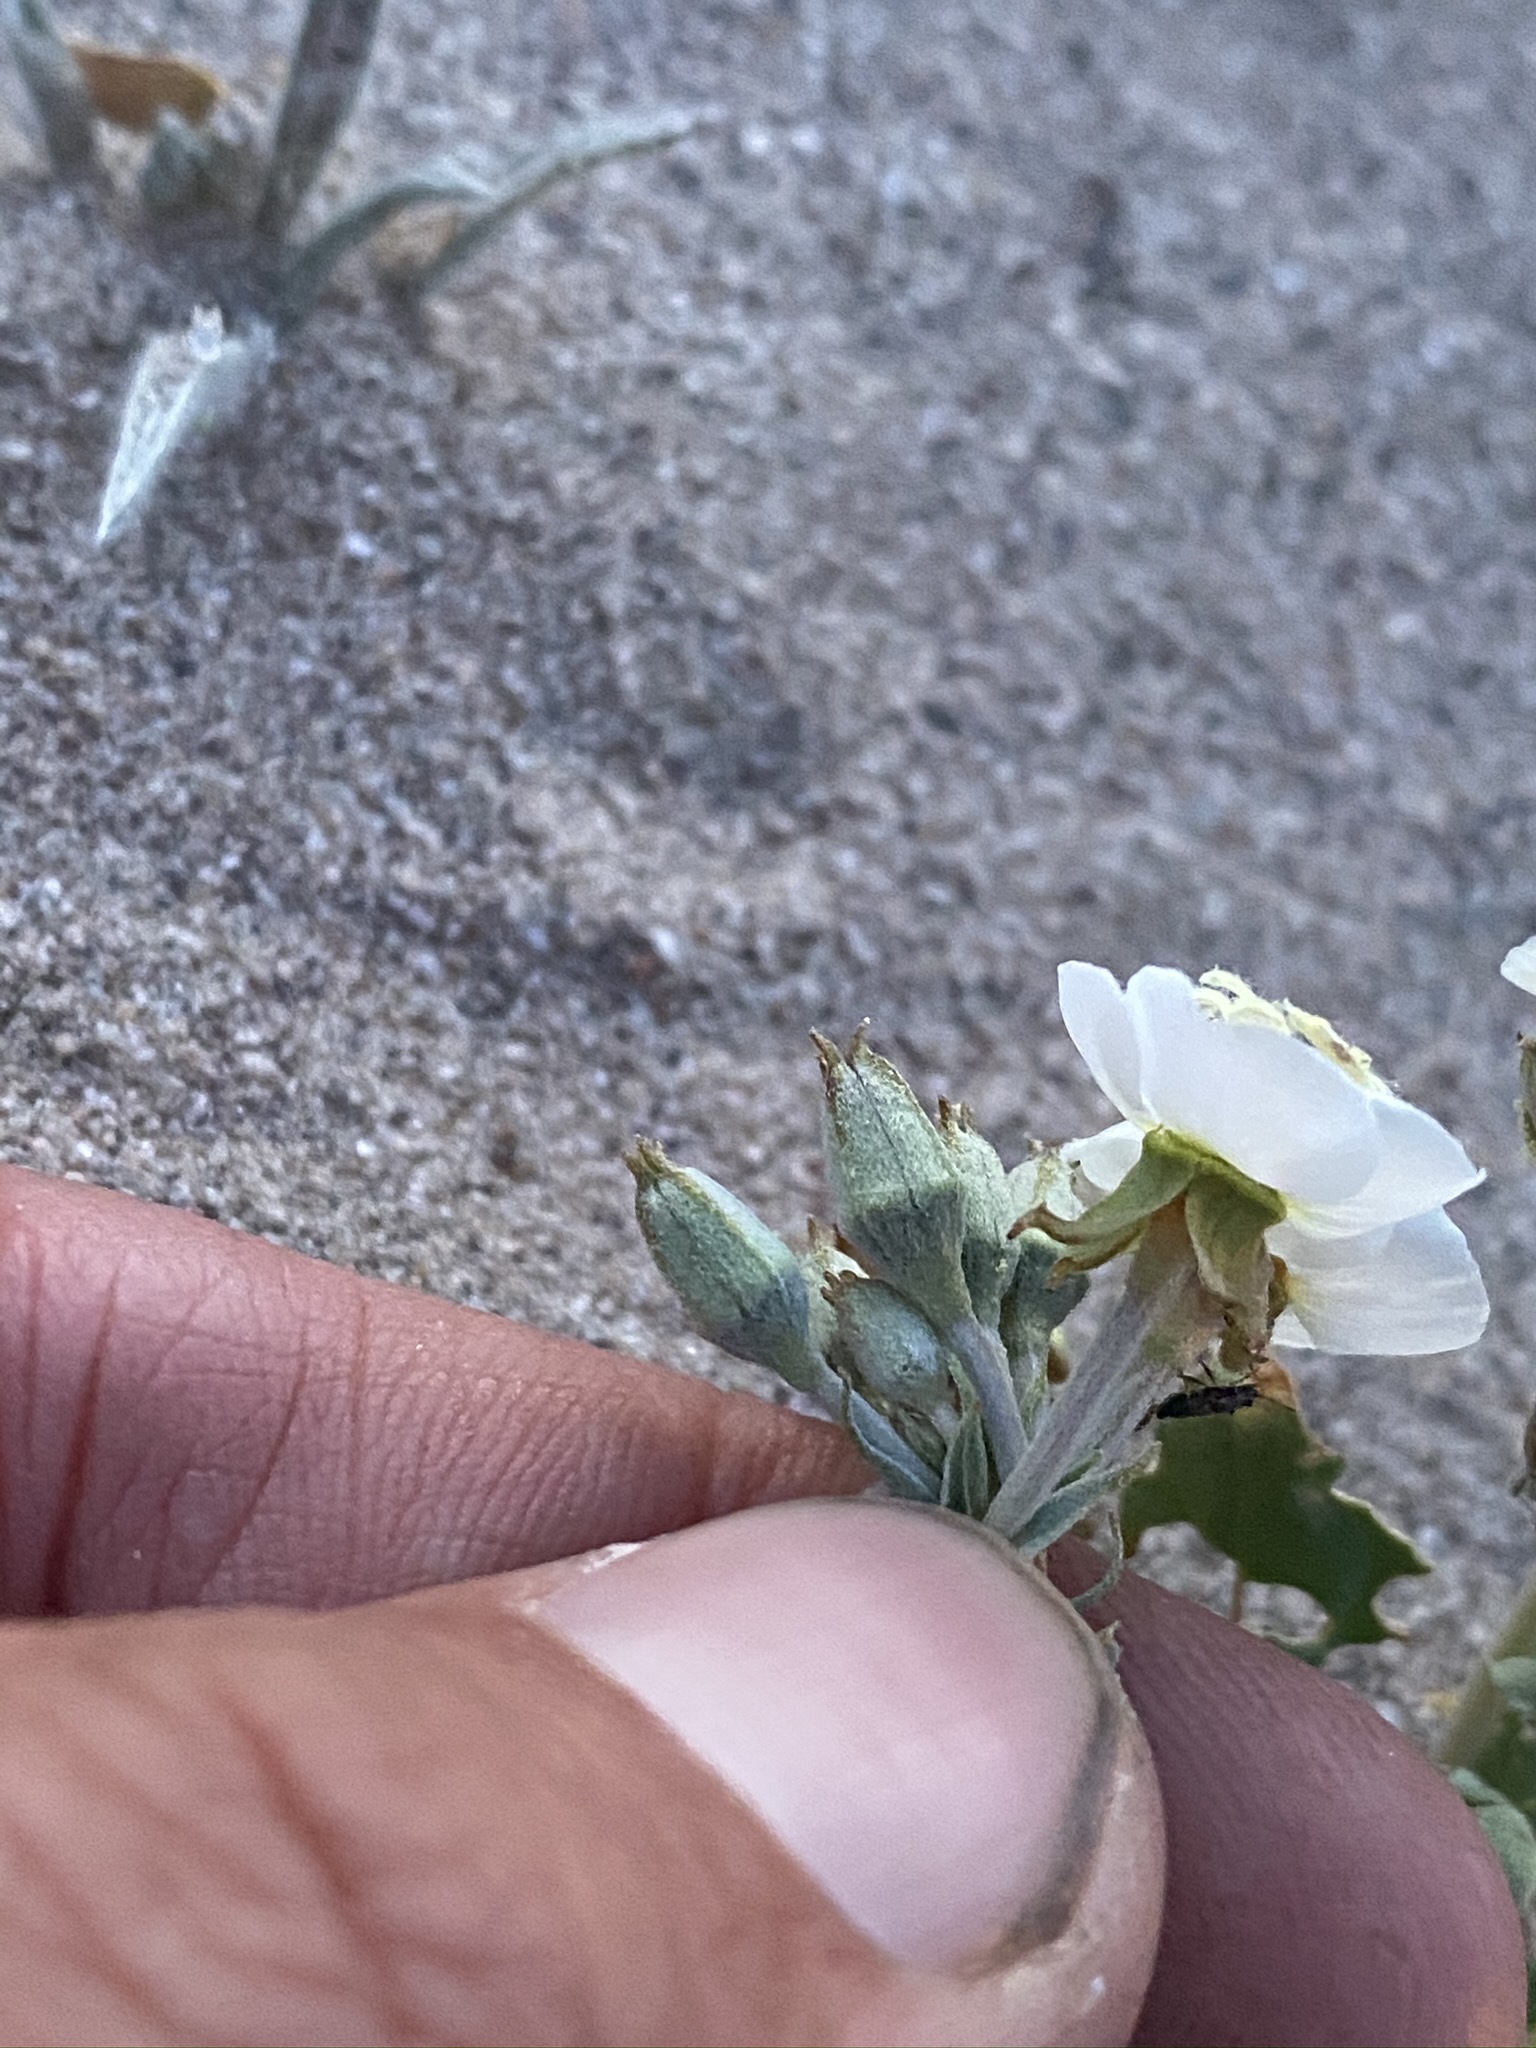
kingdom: Plantae
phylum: Tracheophyta
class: Magnoliopsida
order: Myrtales
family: Onagraceae
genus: Chylismia
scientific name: Chylismia claviformis
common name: Browneyes
